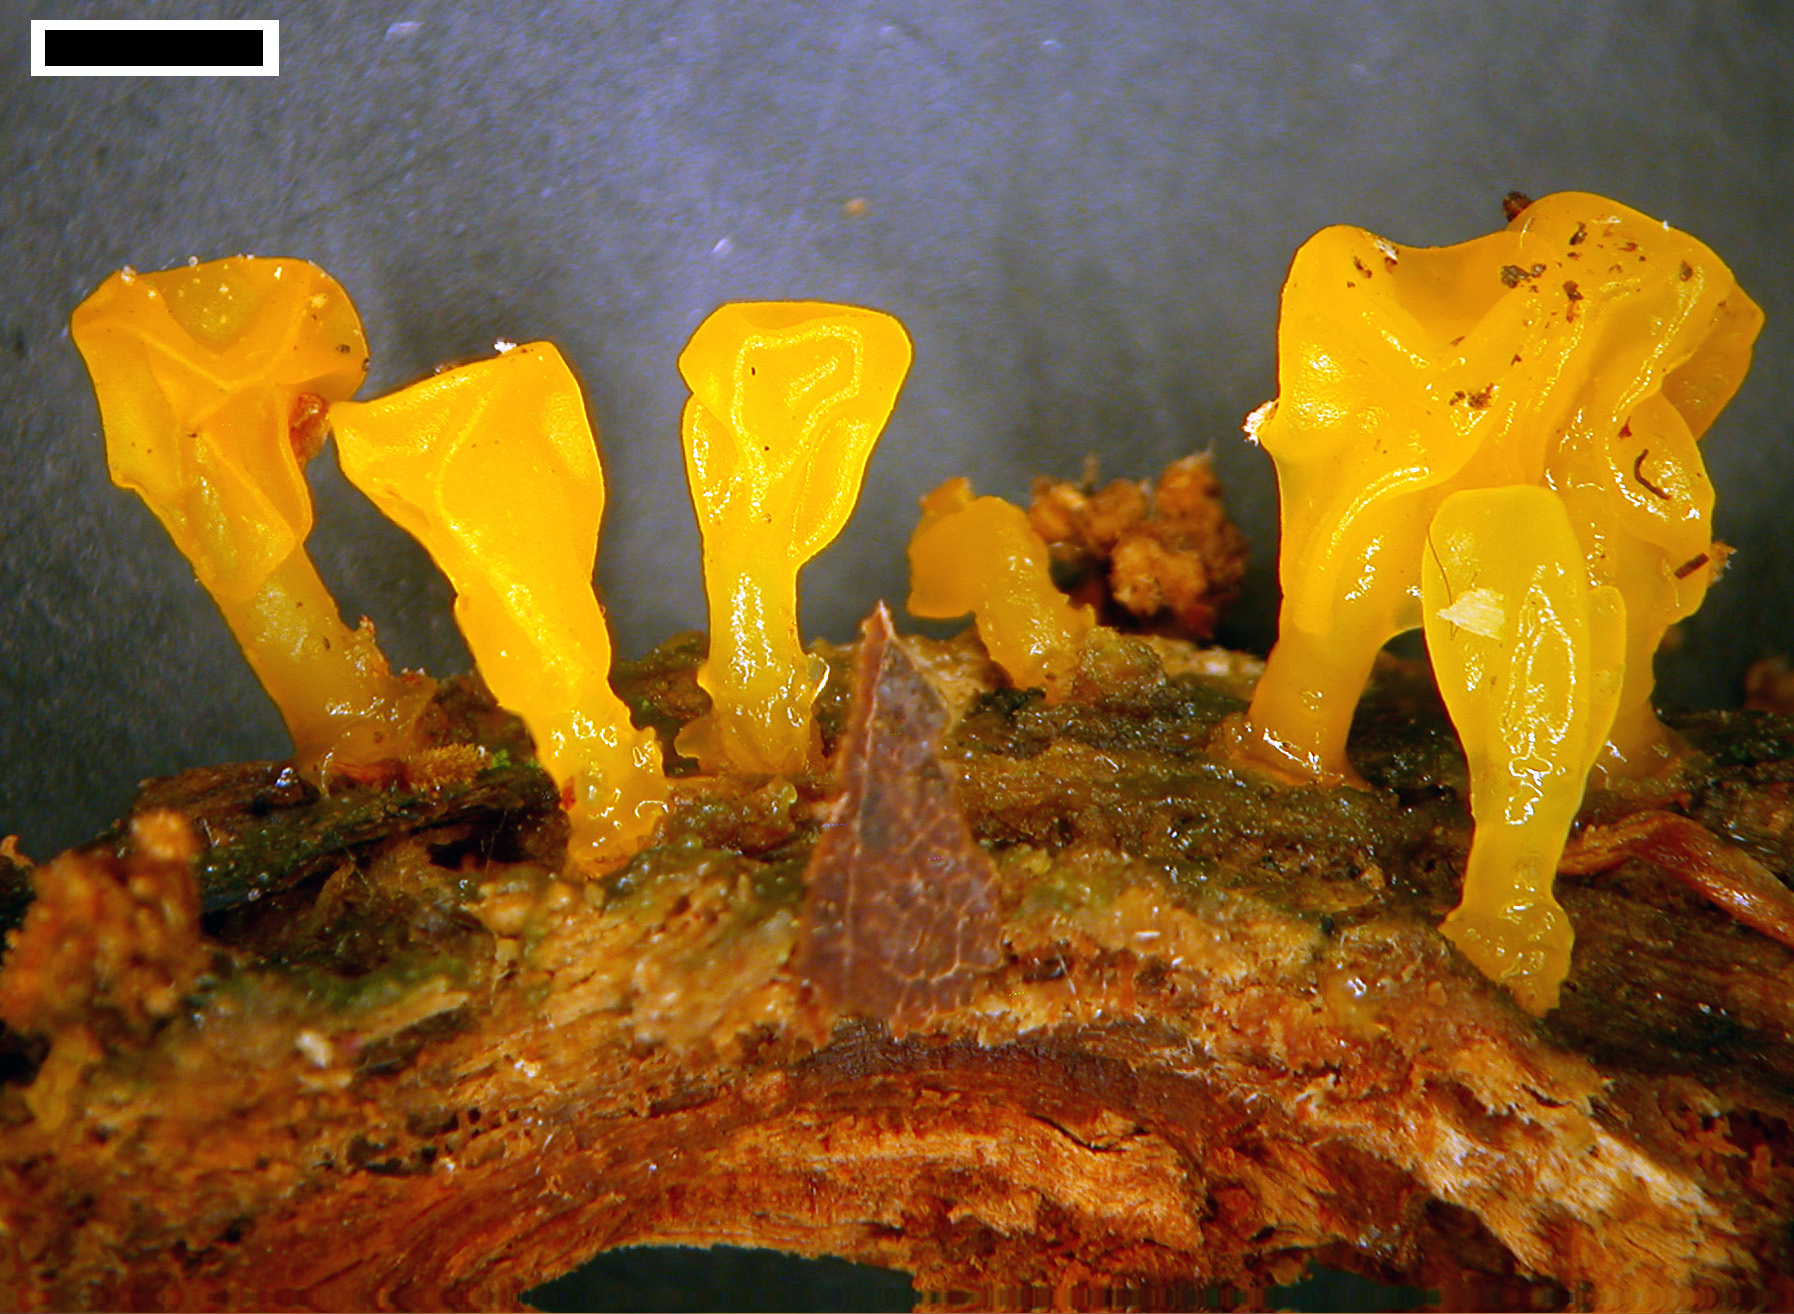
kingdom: Fungi
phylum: Basidiomycota
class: Dacrymycetes
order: Dacrymycetales
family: Dacrymycetaceae
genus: Calocera
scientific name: Calocera lutea
